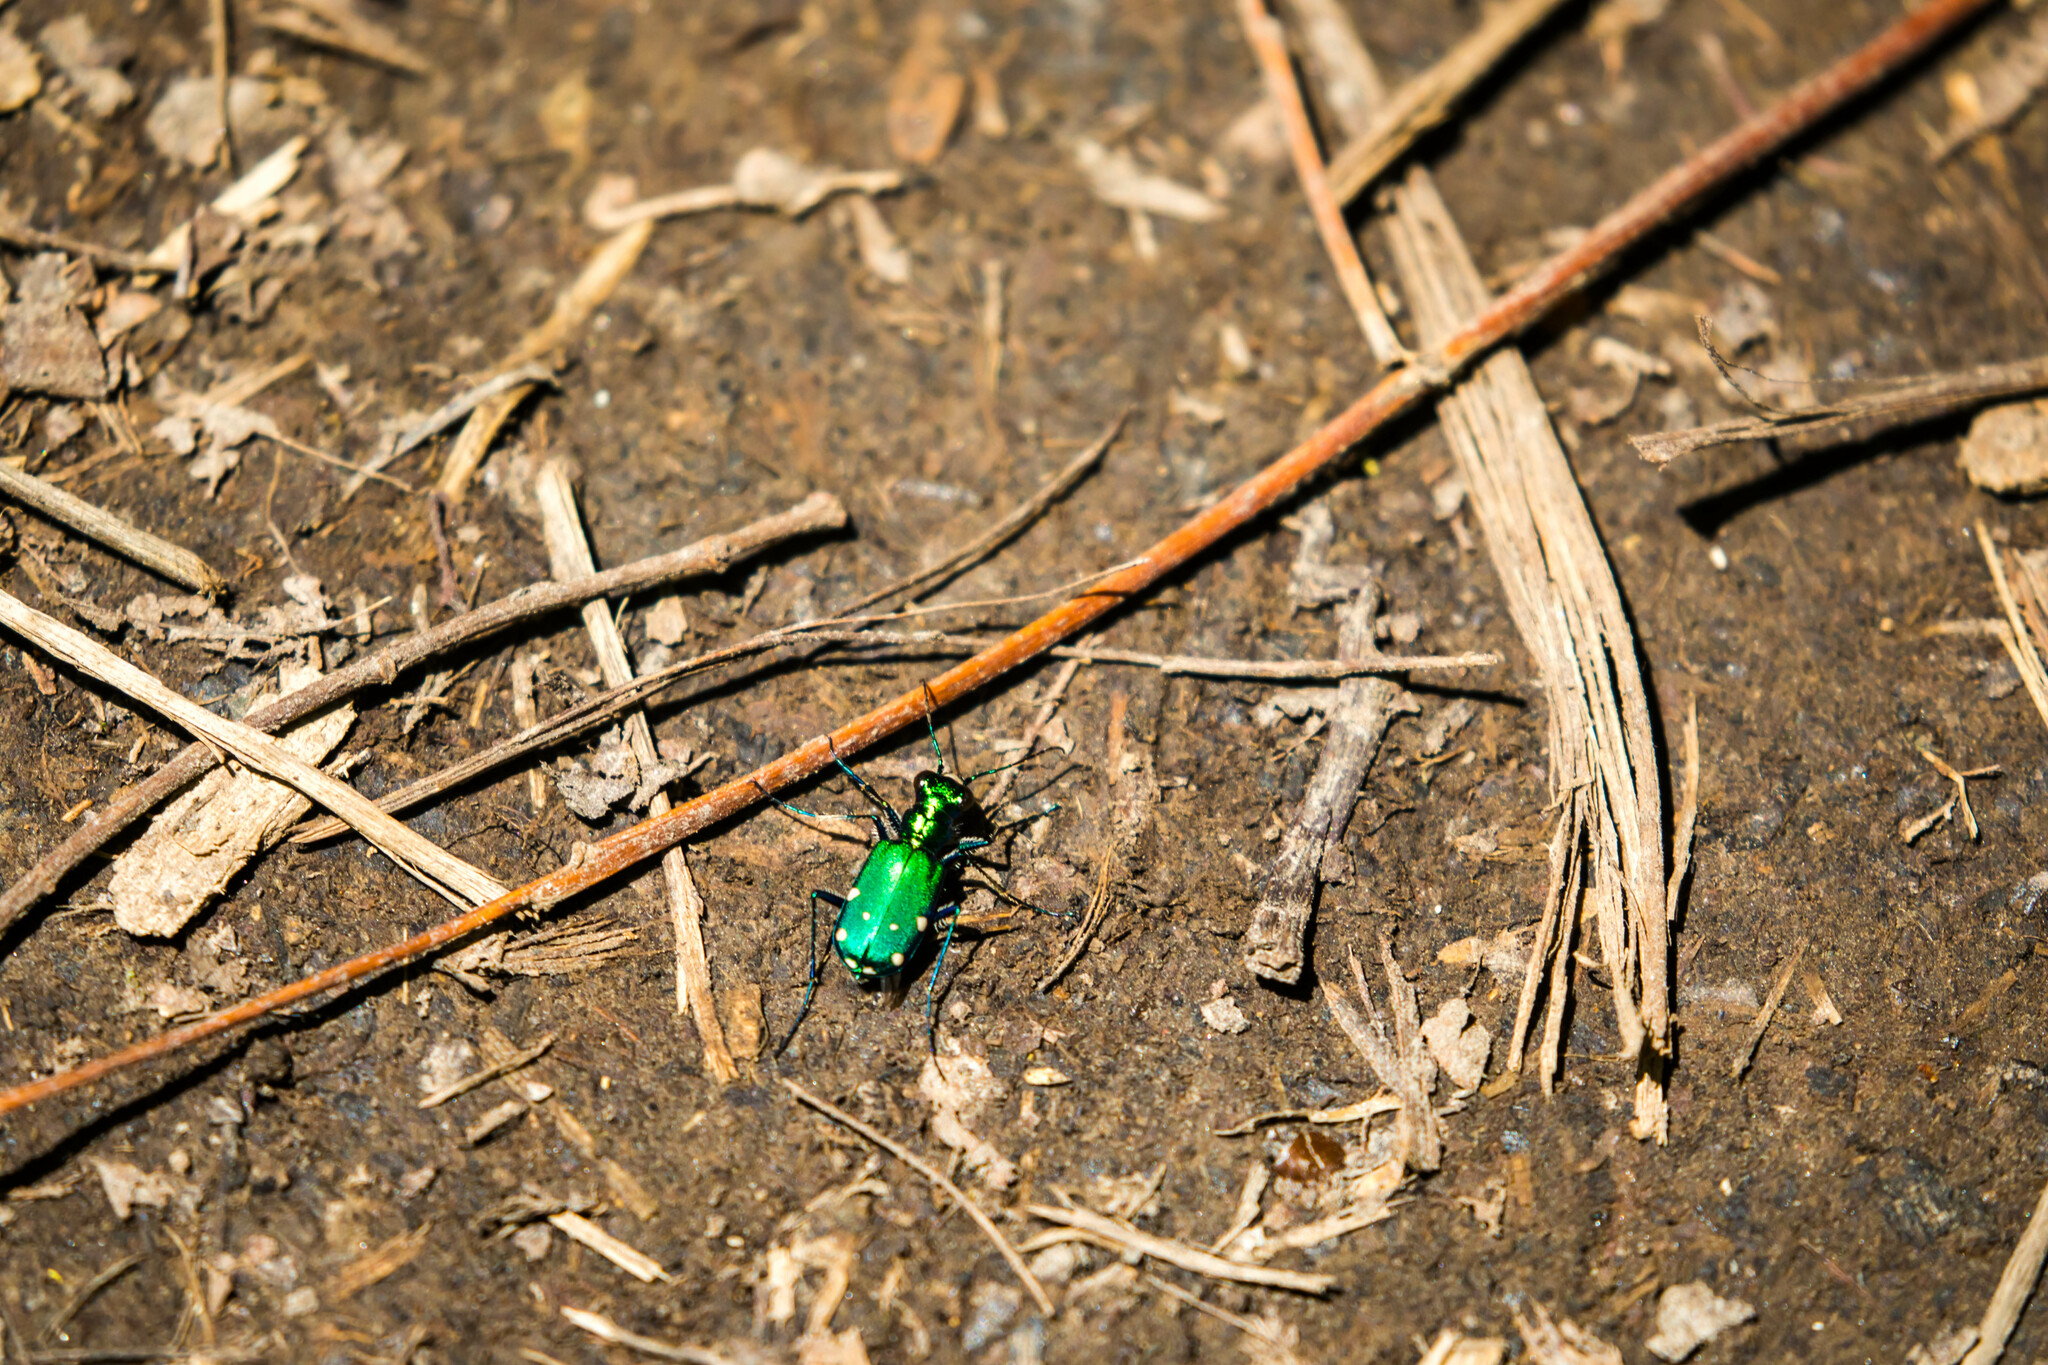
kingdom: Animalia
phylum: Arthropoda
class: Insecta
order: Coleoptera
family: Carabidae
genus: Cicindela
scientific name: Cicindela sexguttata
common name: Six-spotted tiger beetle
